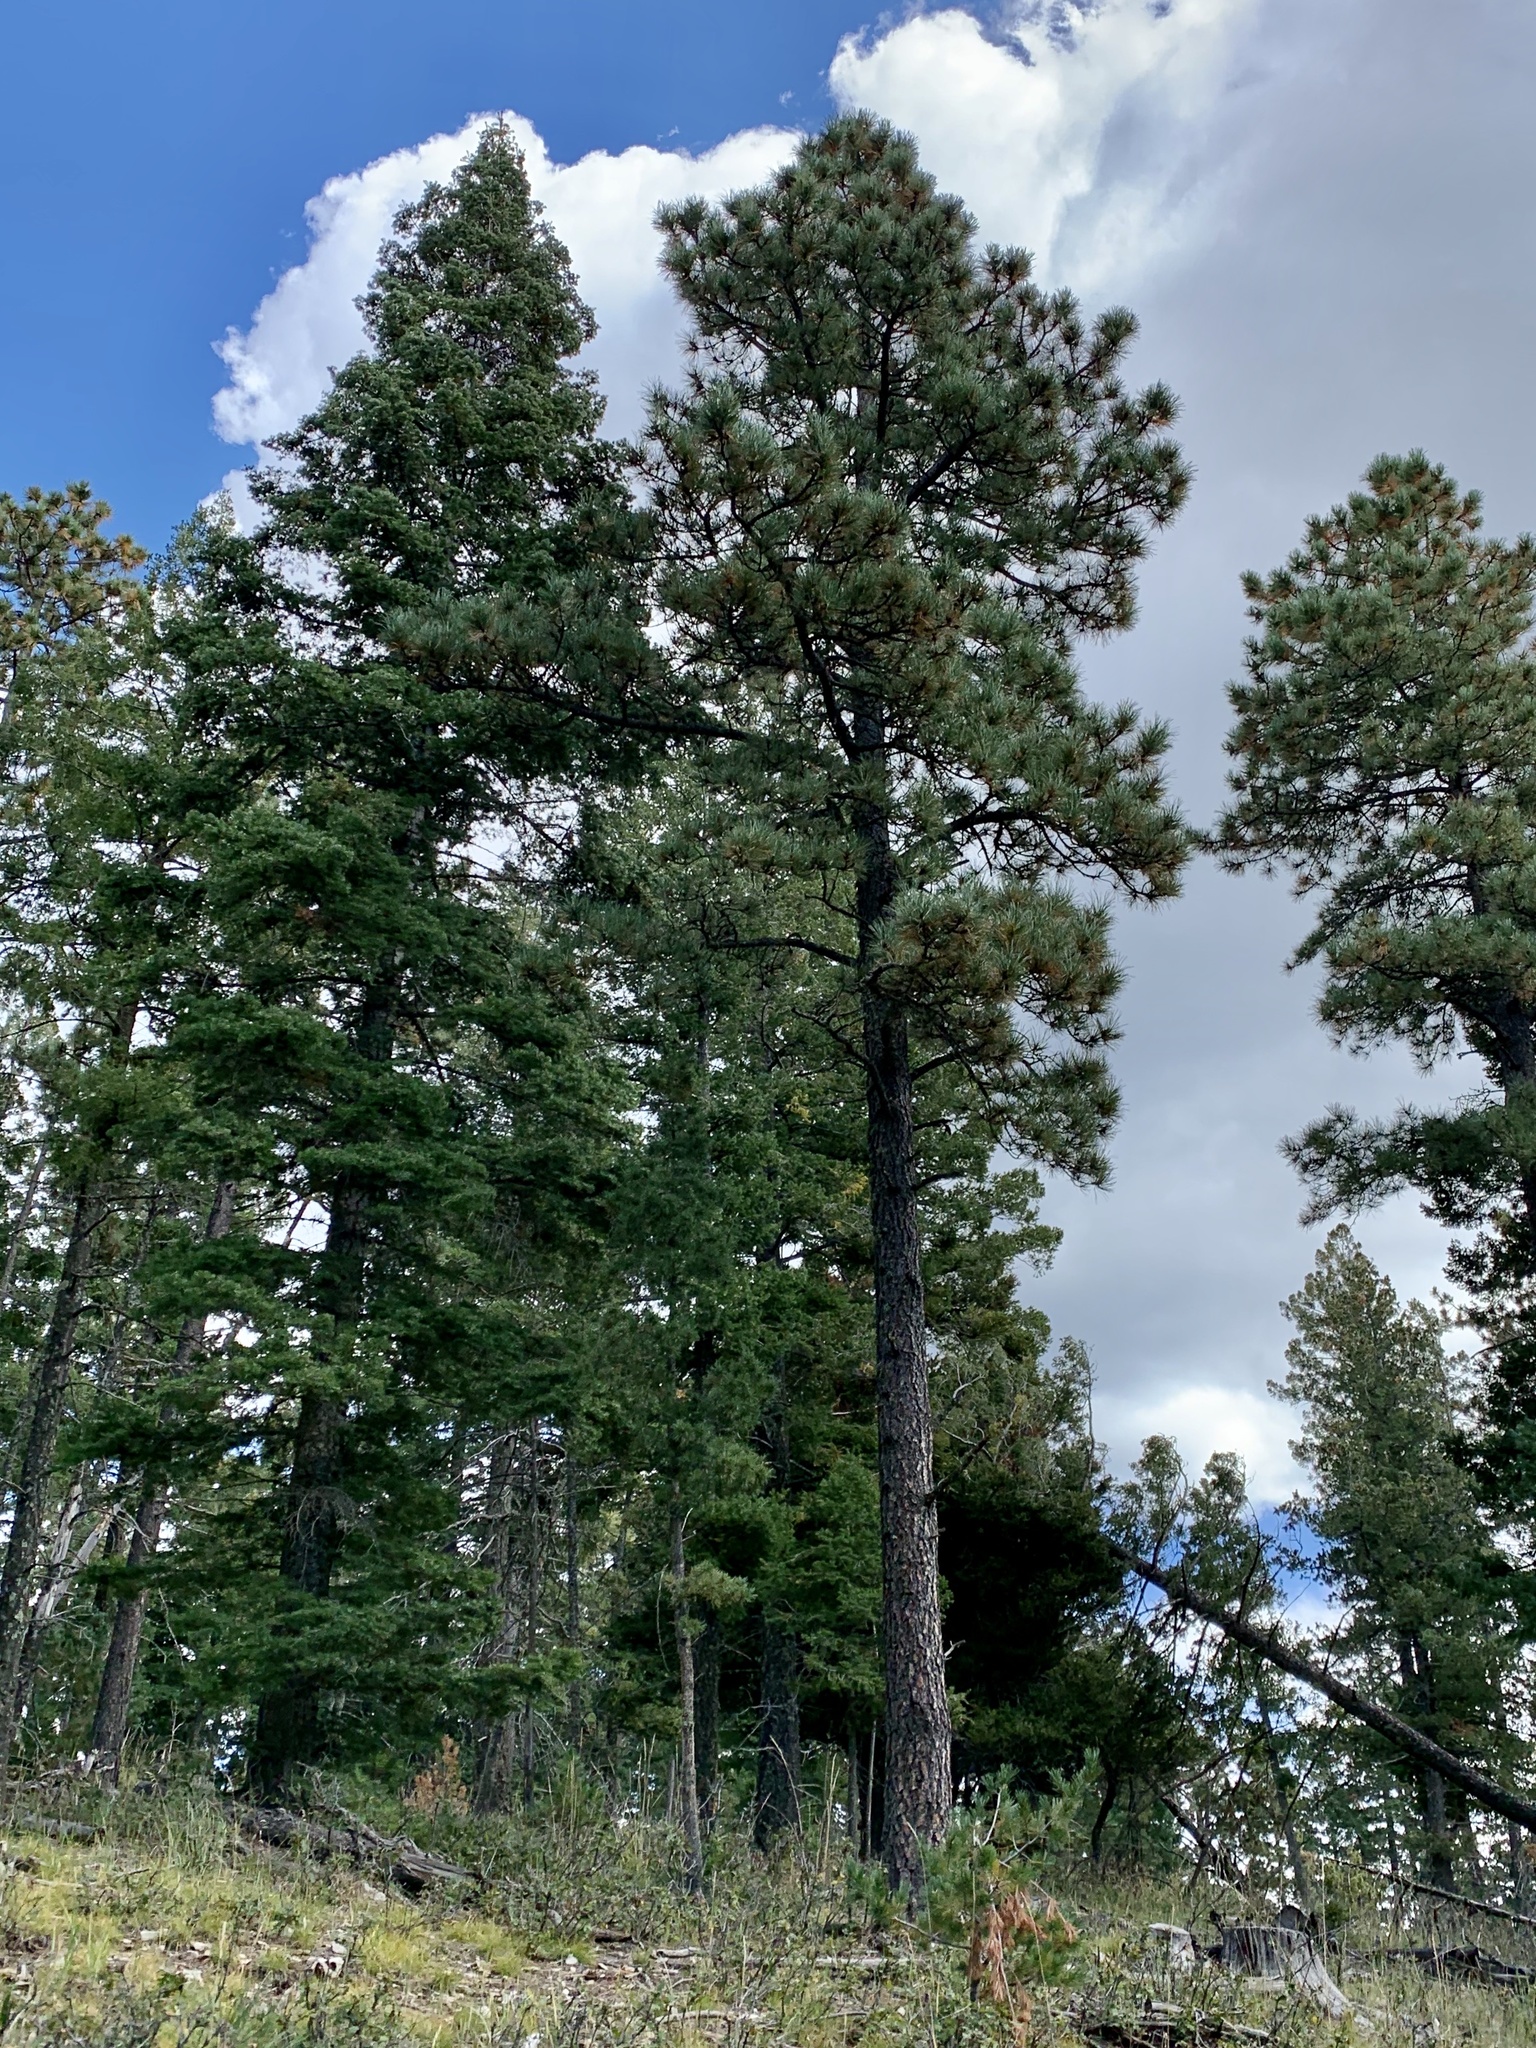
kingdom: Plantae
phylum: Tracheophyta
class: Pinopsida
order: Pinales
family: Pinaceae
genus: Pinus
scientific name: Pinus ponderosa
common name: Western yellow-pine
